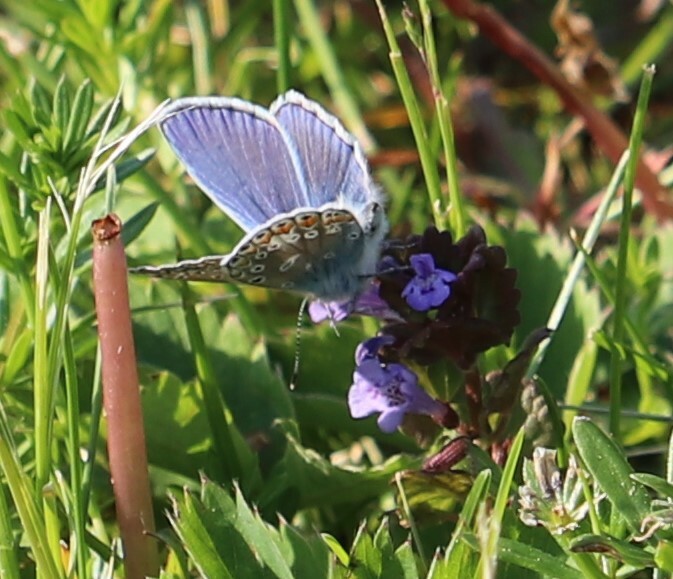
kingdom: Animalia
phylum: Arthropoda
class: Insecta
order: Lepidoptera
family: Lycaenidae
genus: Polyommatus
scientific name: Polyommatus icarus
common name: Common blue
